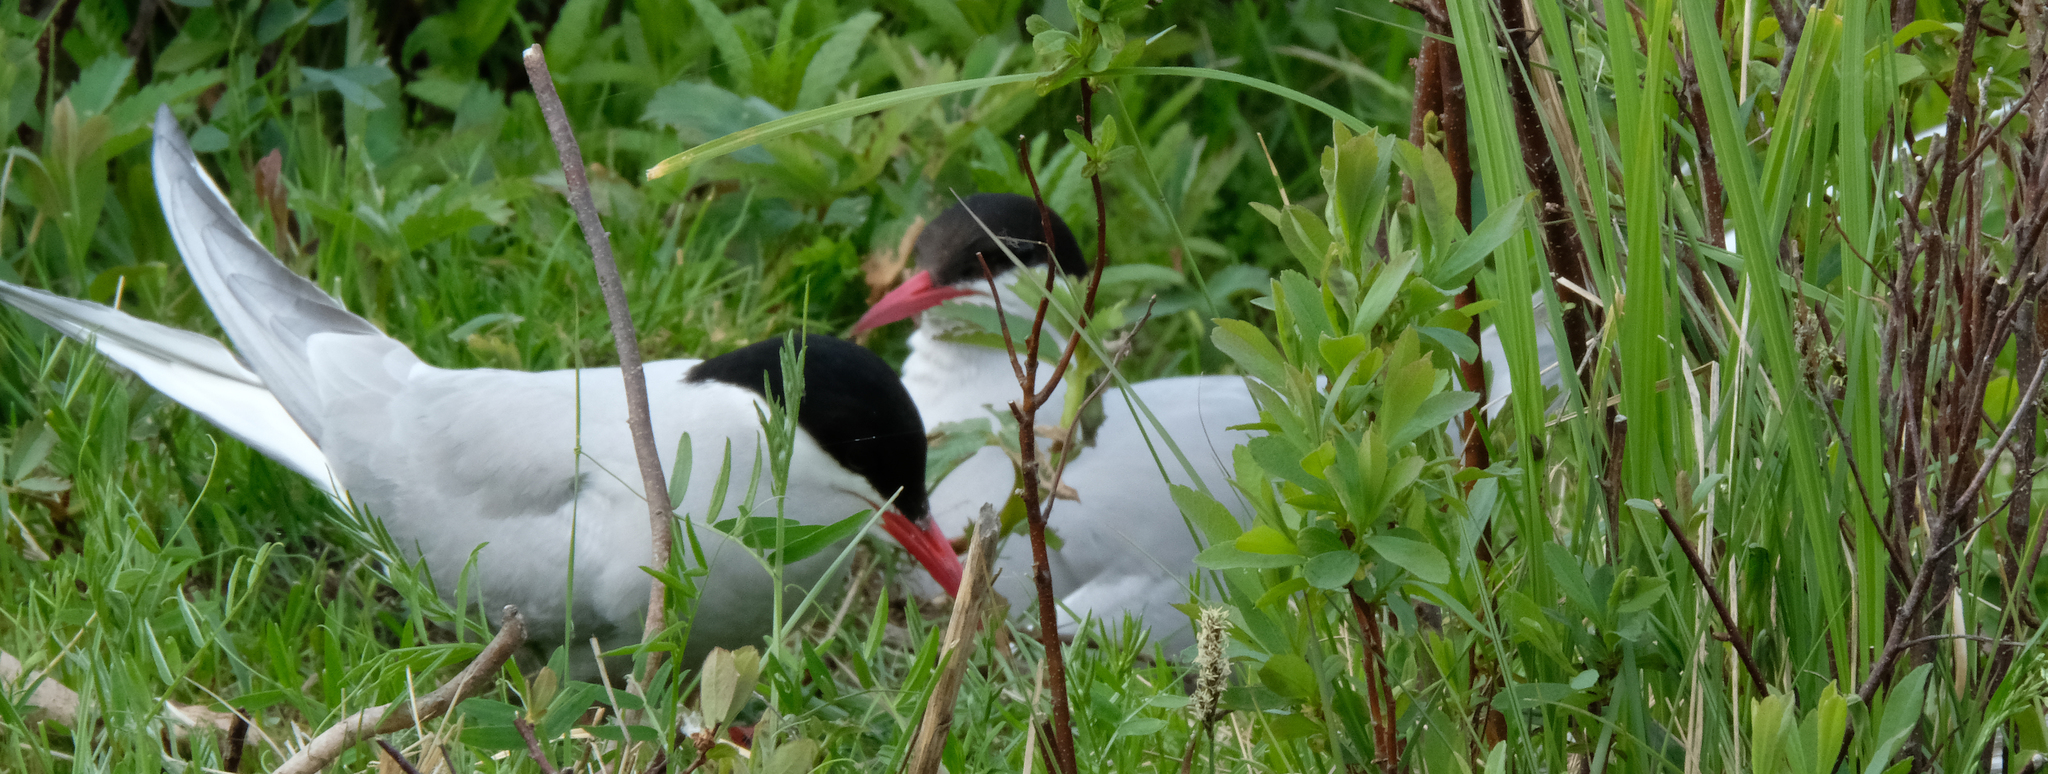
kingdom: Animalia
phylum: Chordata
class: Aves
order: Charadriiformes
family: Laridae
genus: Sterna
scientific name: Sterna paradisaea
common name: Arctic tern
